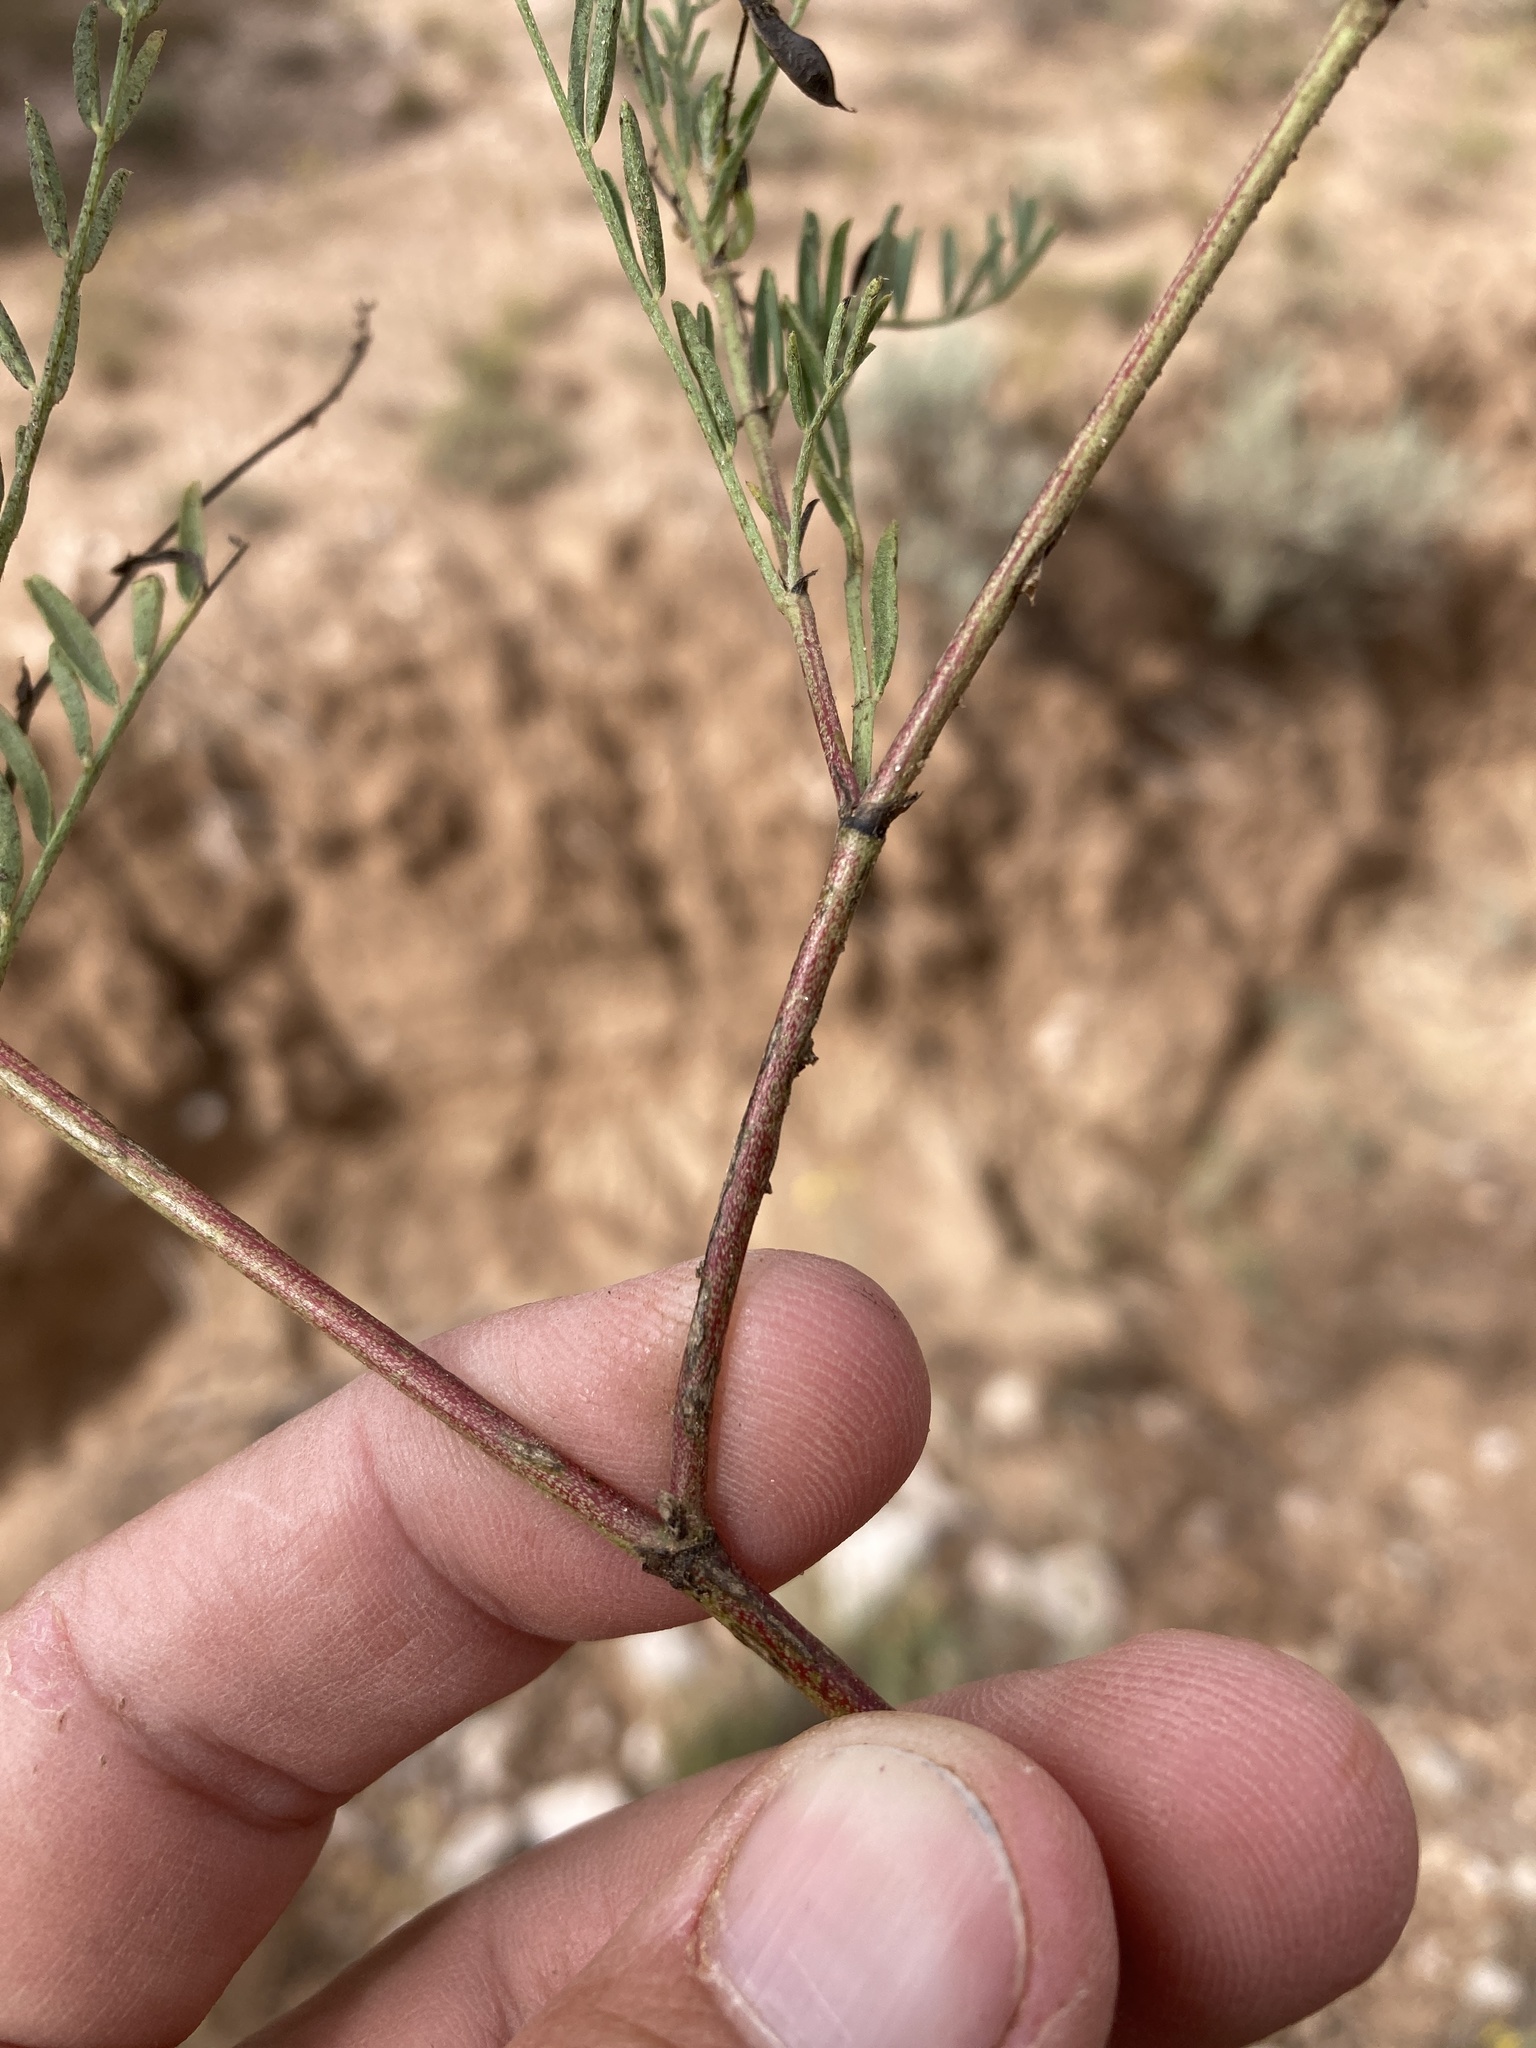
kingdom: Plantae
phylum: Tracheophyta
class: Magnoliopsida
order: Fabales
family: Fabaceae
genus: Astragalus
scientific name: Astragalus tenellus
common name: Pulse milk-vetch
